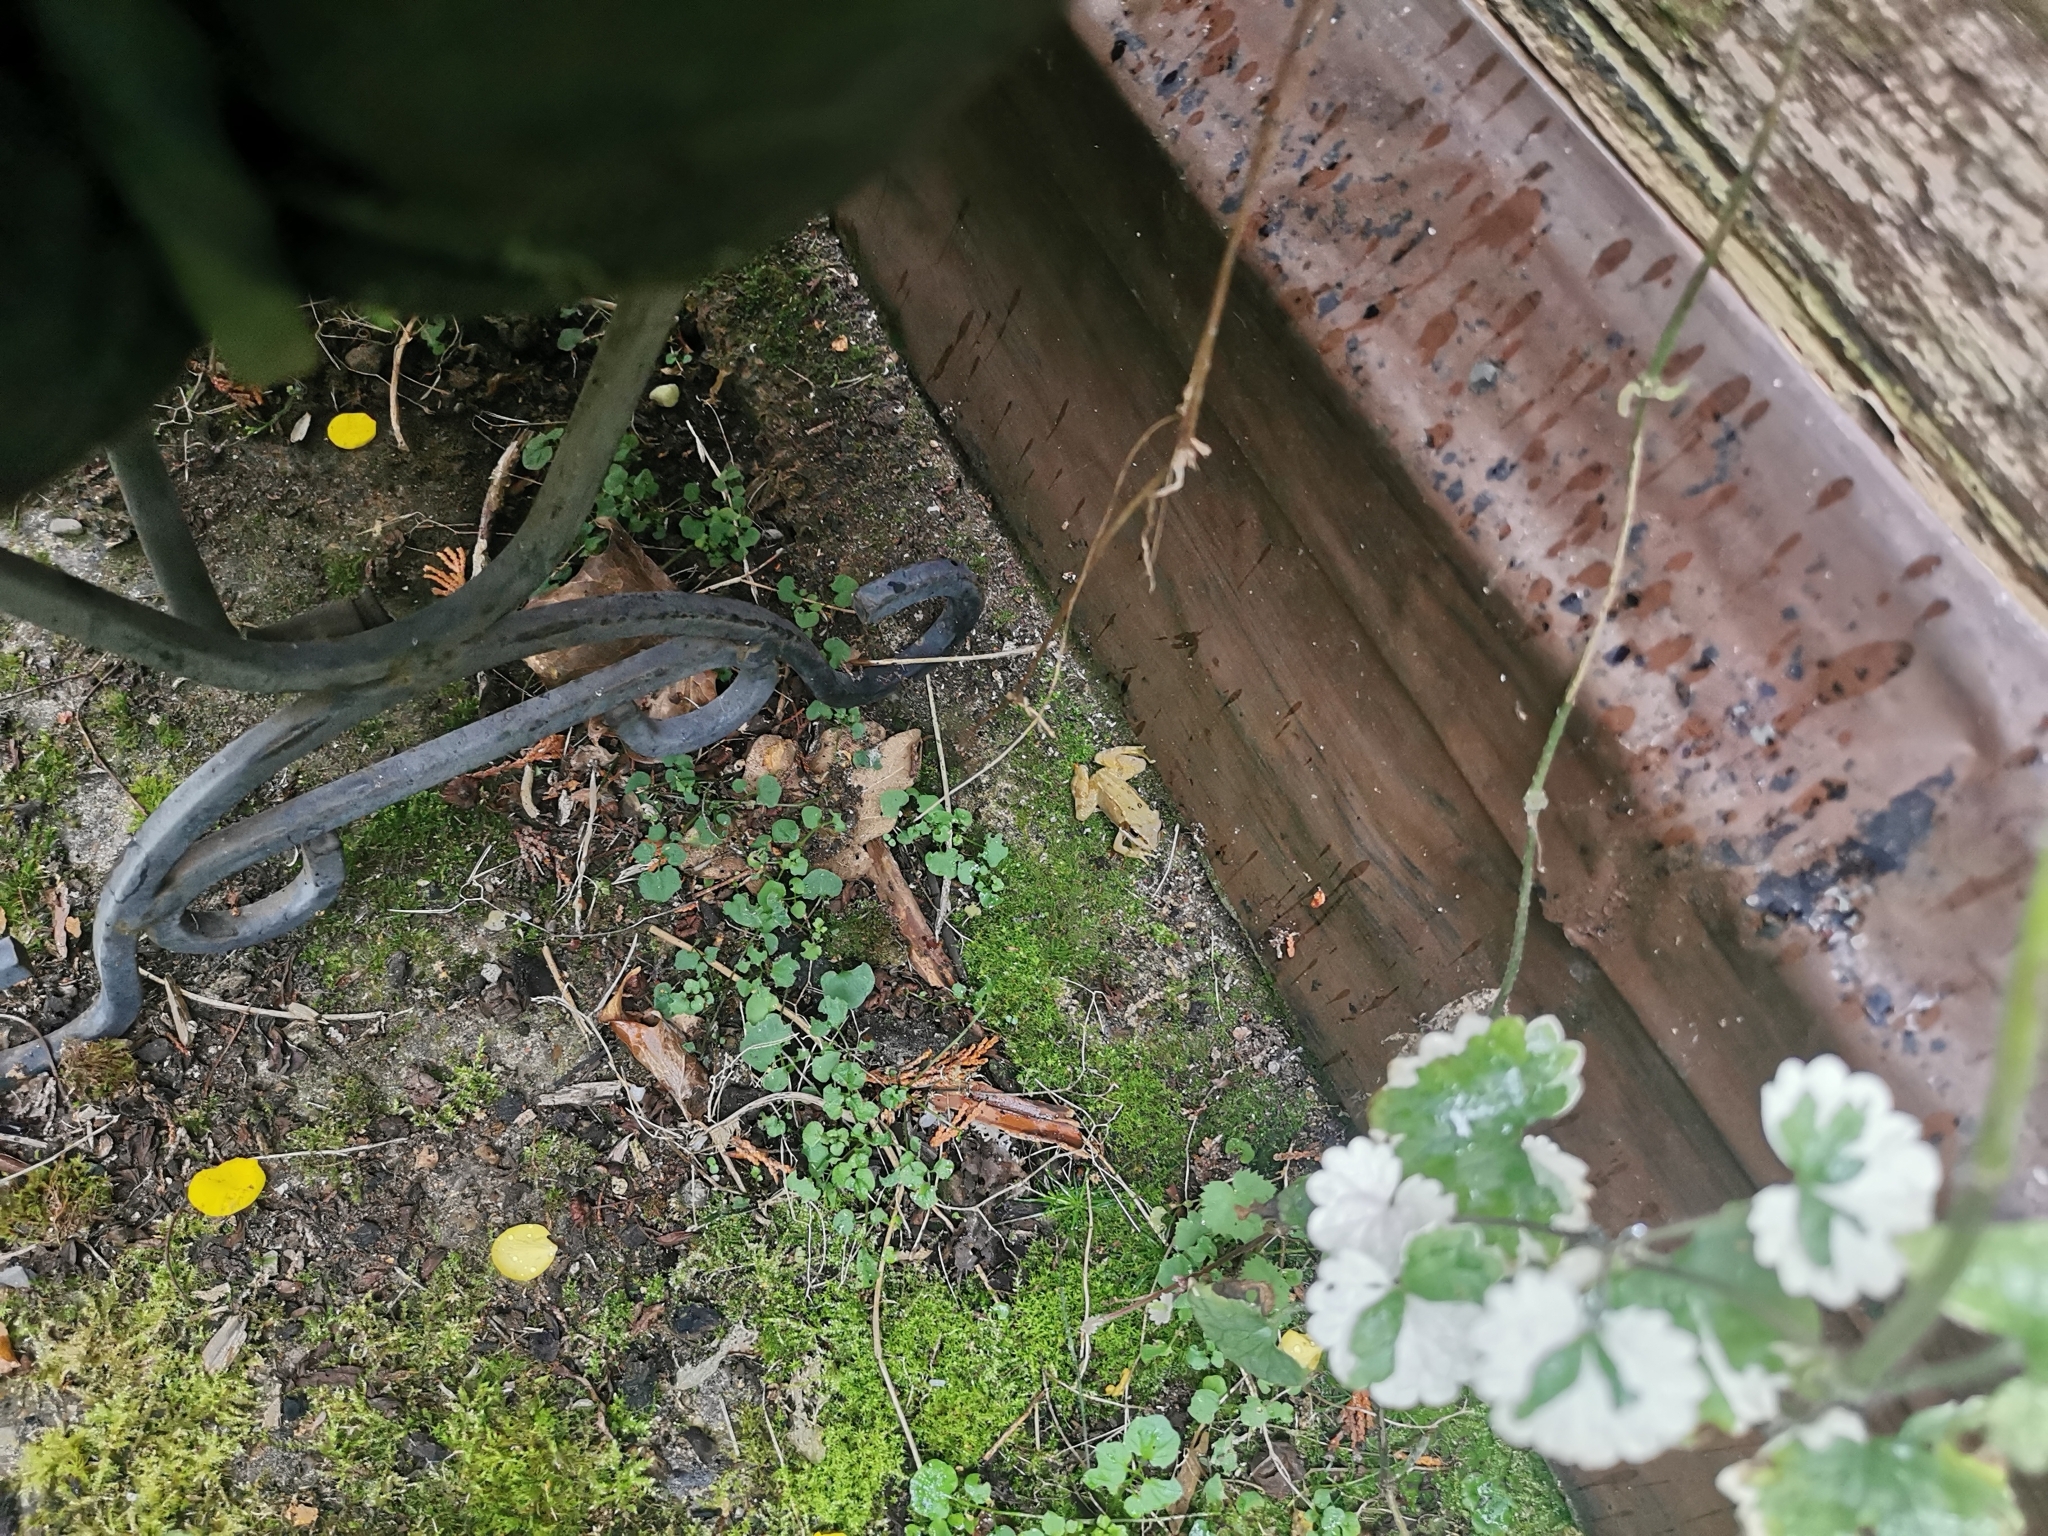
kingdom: Animalia
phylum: Chordata
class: Amphibia
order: Anura
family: Ranidae
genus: Rana
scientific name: Rana temporaria
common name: Common frog
